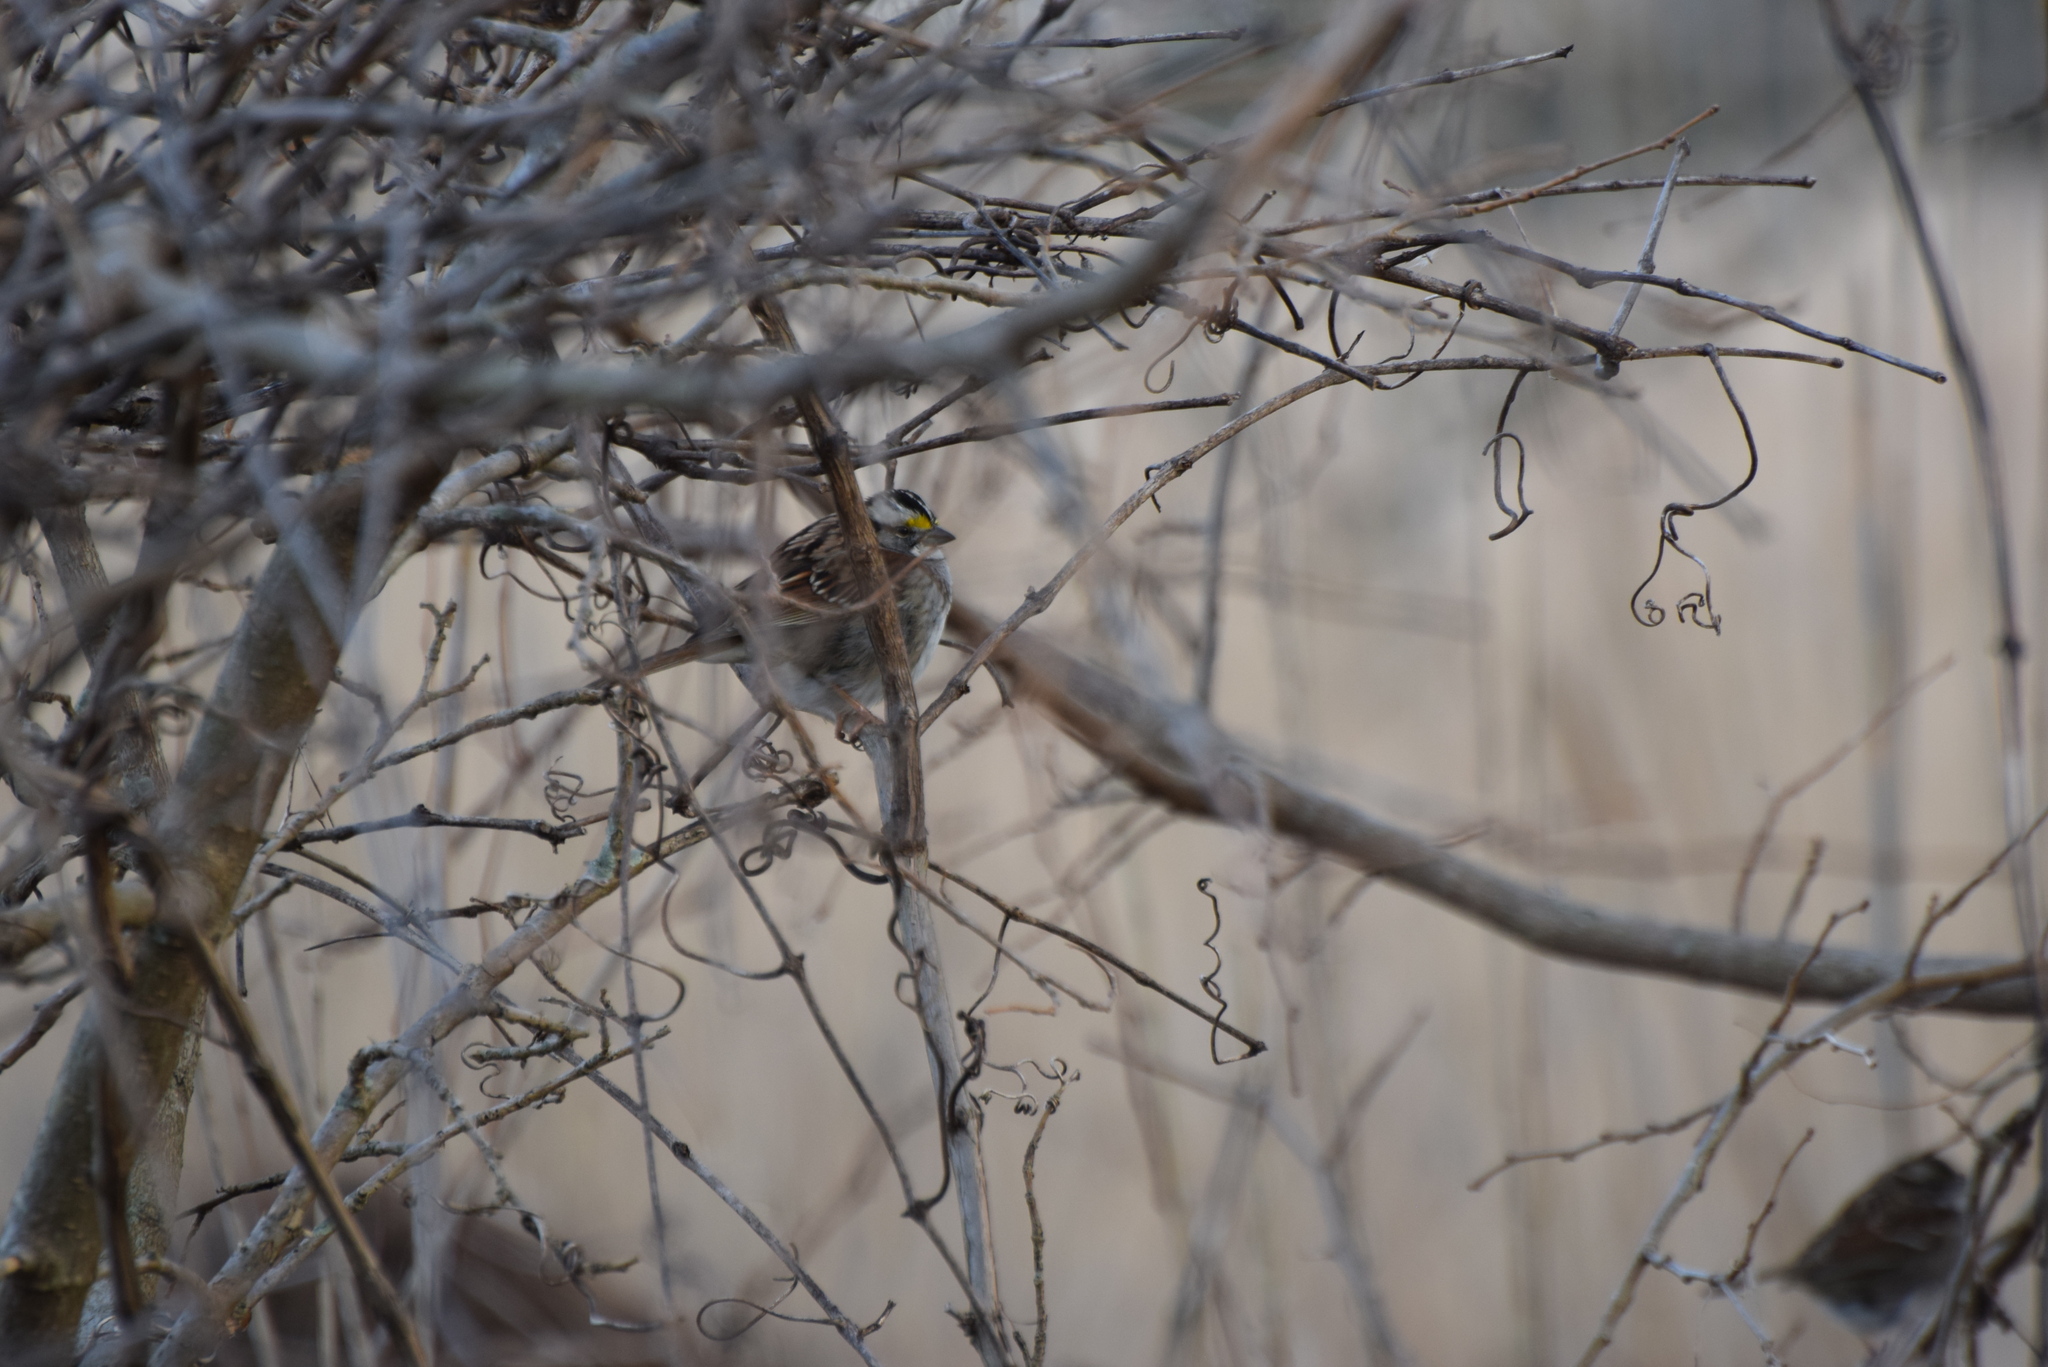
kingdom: Animalia
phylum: Chordata
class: Aves
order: Passeriformes
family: Passerellidae
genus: Zonotrichia
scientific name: Zonotrichia albicollis
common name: White-throated sparrow
